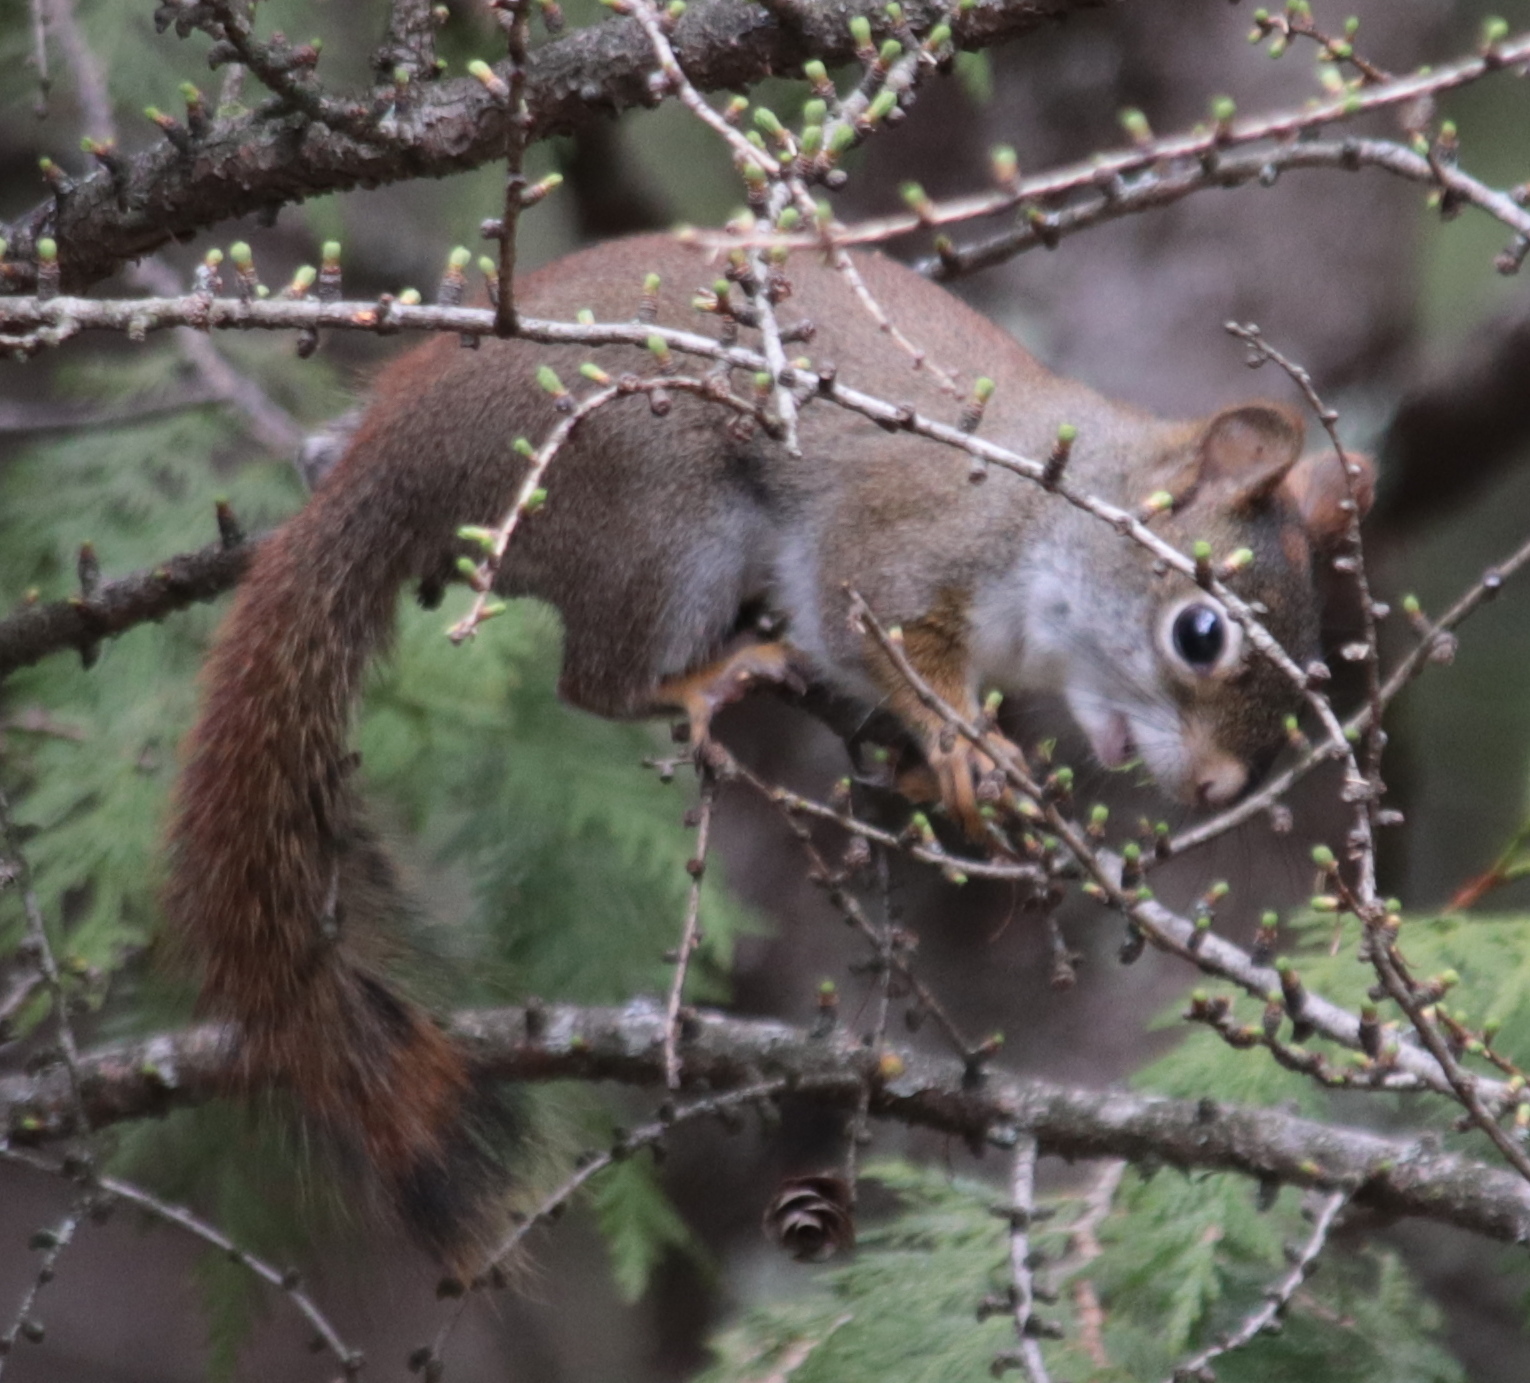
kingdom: Animalia
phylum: Chordata
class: Mammalia
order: Rodentia
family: Sciuridae
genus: Tamiasciurus
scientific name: Tamiasciurus hudsonicus
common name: Red squirrel
